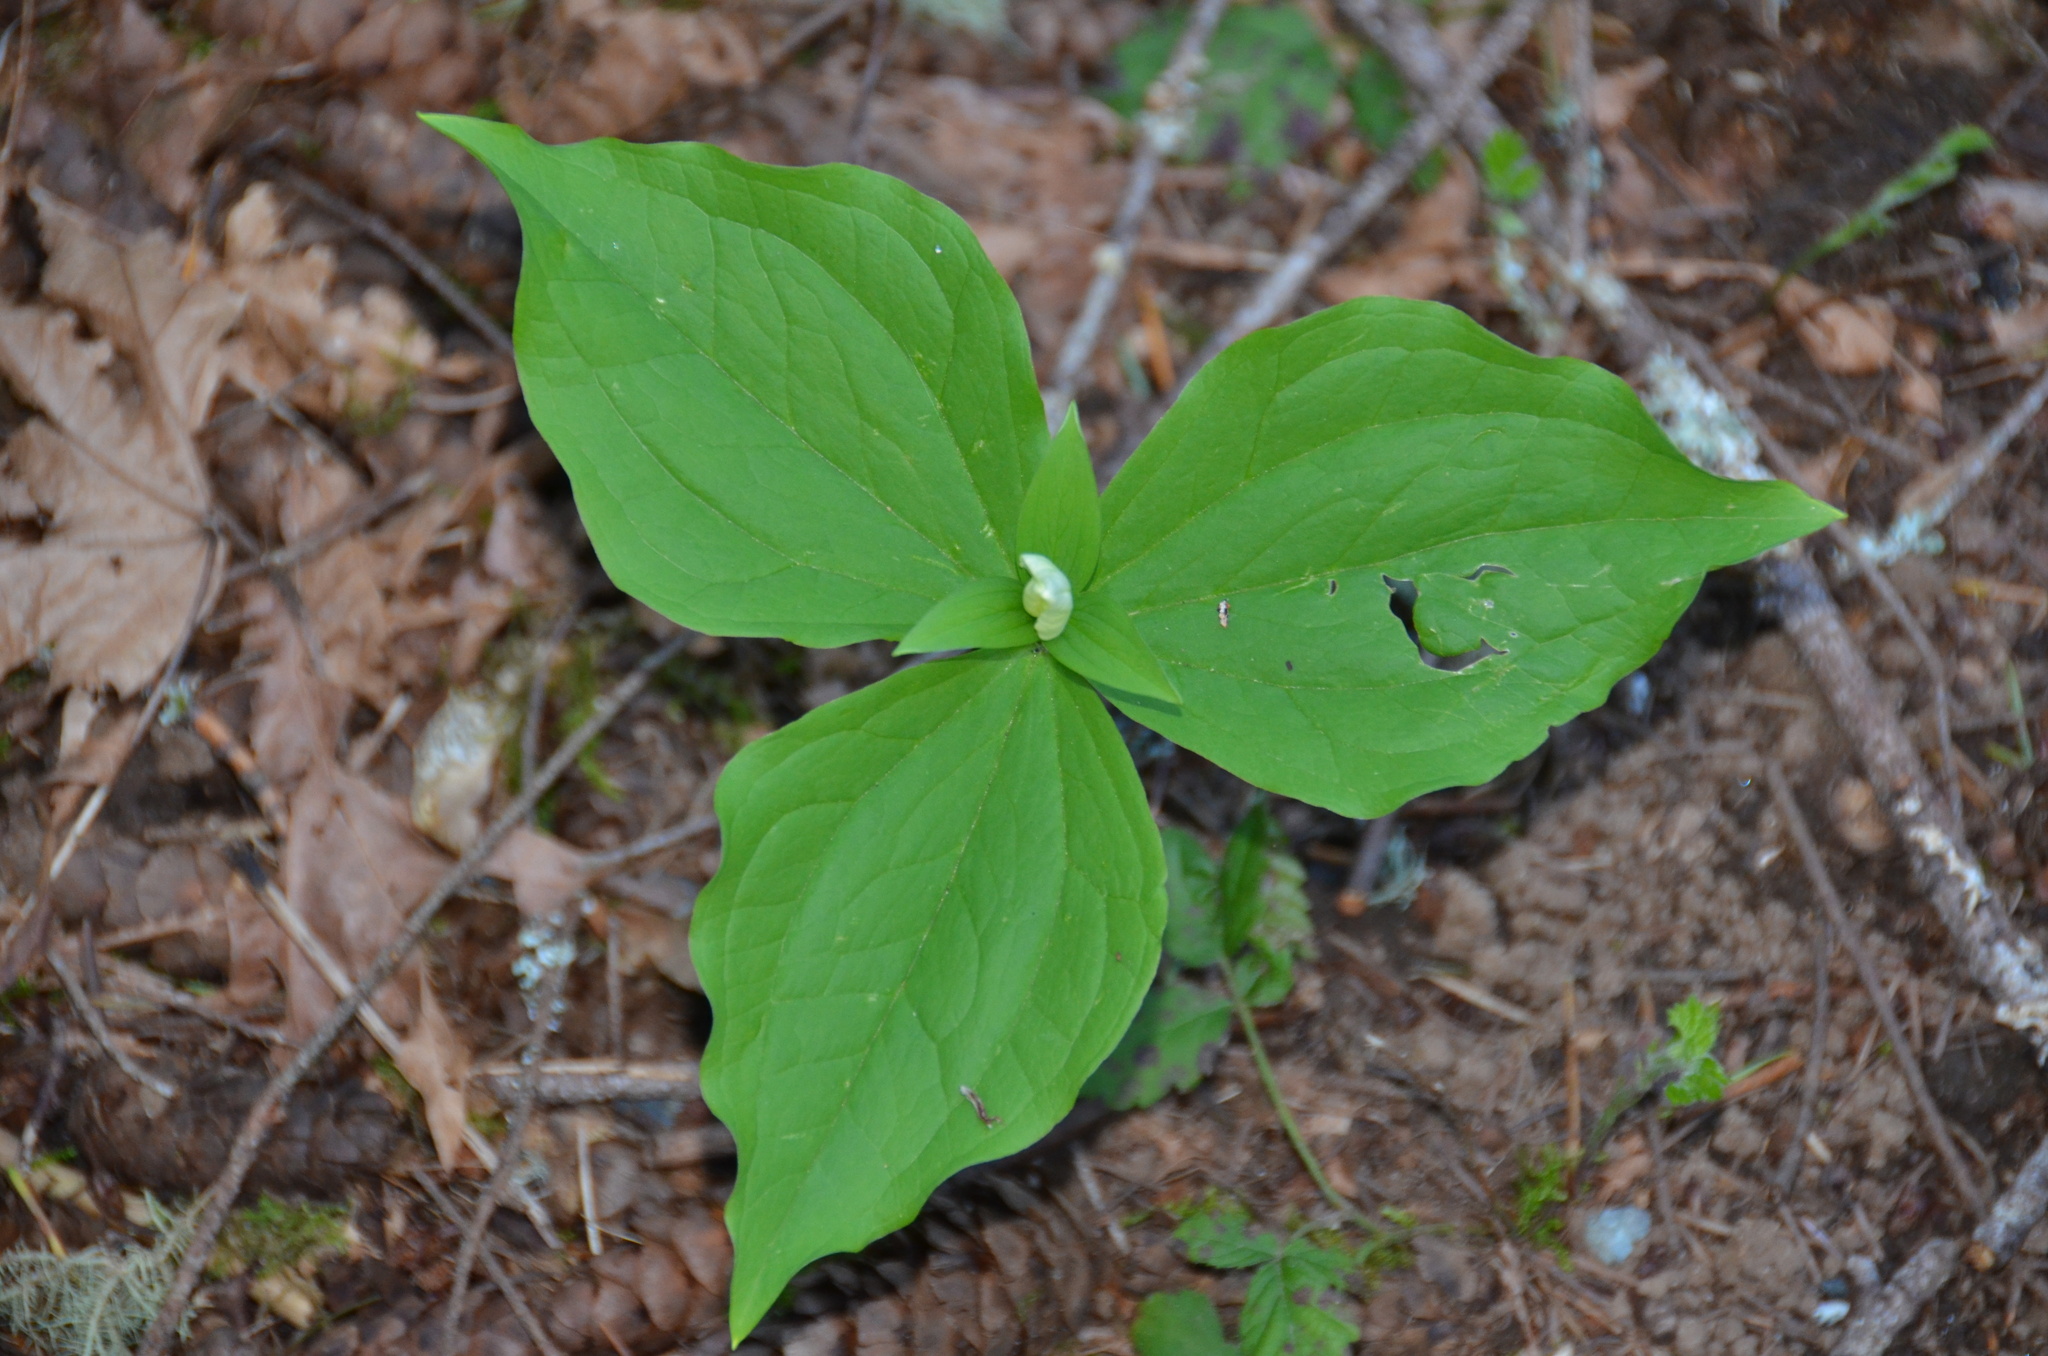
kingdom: Plantae
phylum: Tracheophyta
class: Liliopsida
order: Liliales
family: Melanthiaceae
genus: Trillium
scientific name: Trillium ovatum
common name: Pacific trillium
